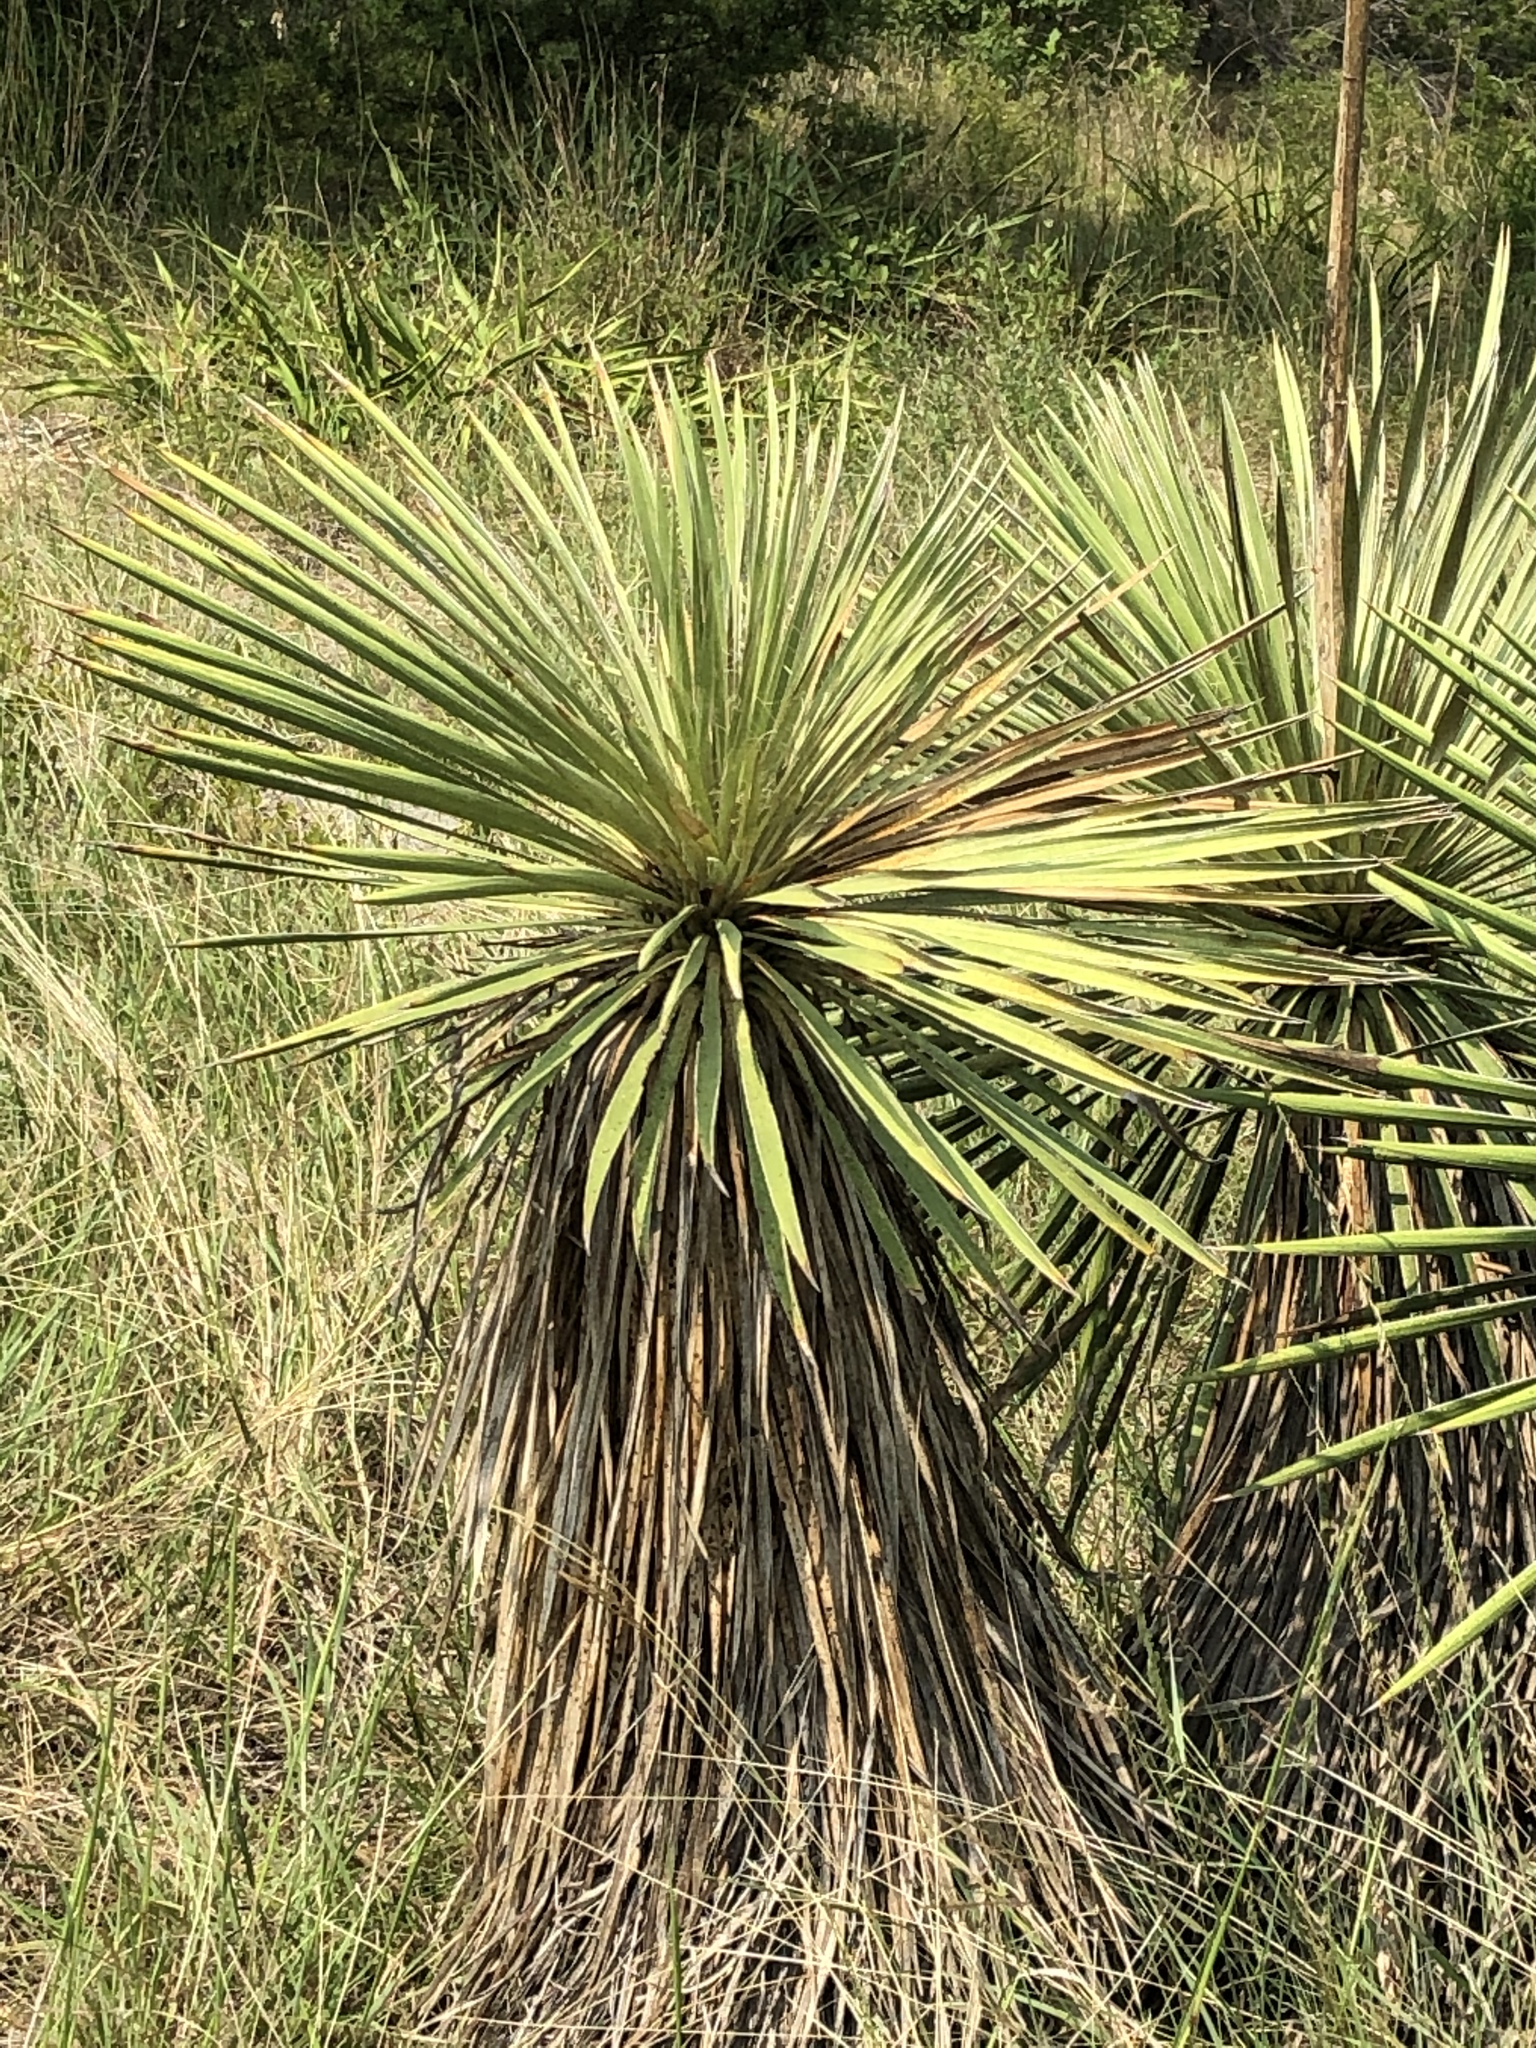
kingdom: Plantae
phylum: Tracheophyta
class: Liliopsida
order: Asparagales
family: Asparagaceae
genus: Yucca
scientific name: Yucca constricta
